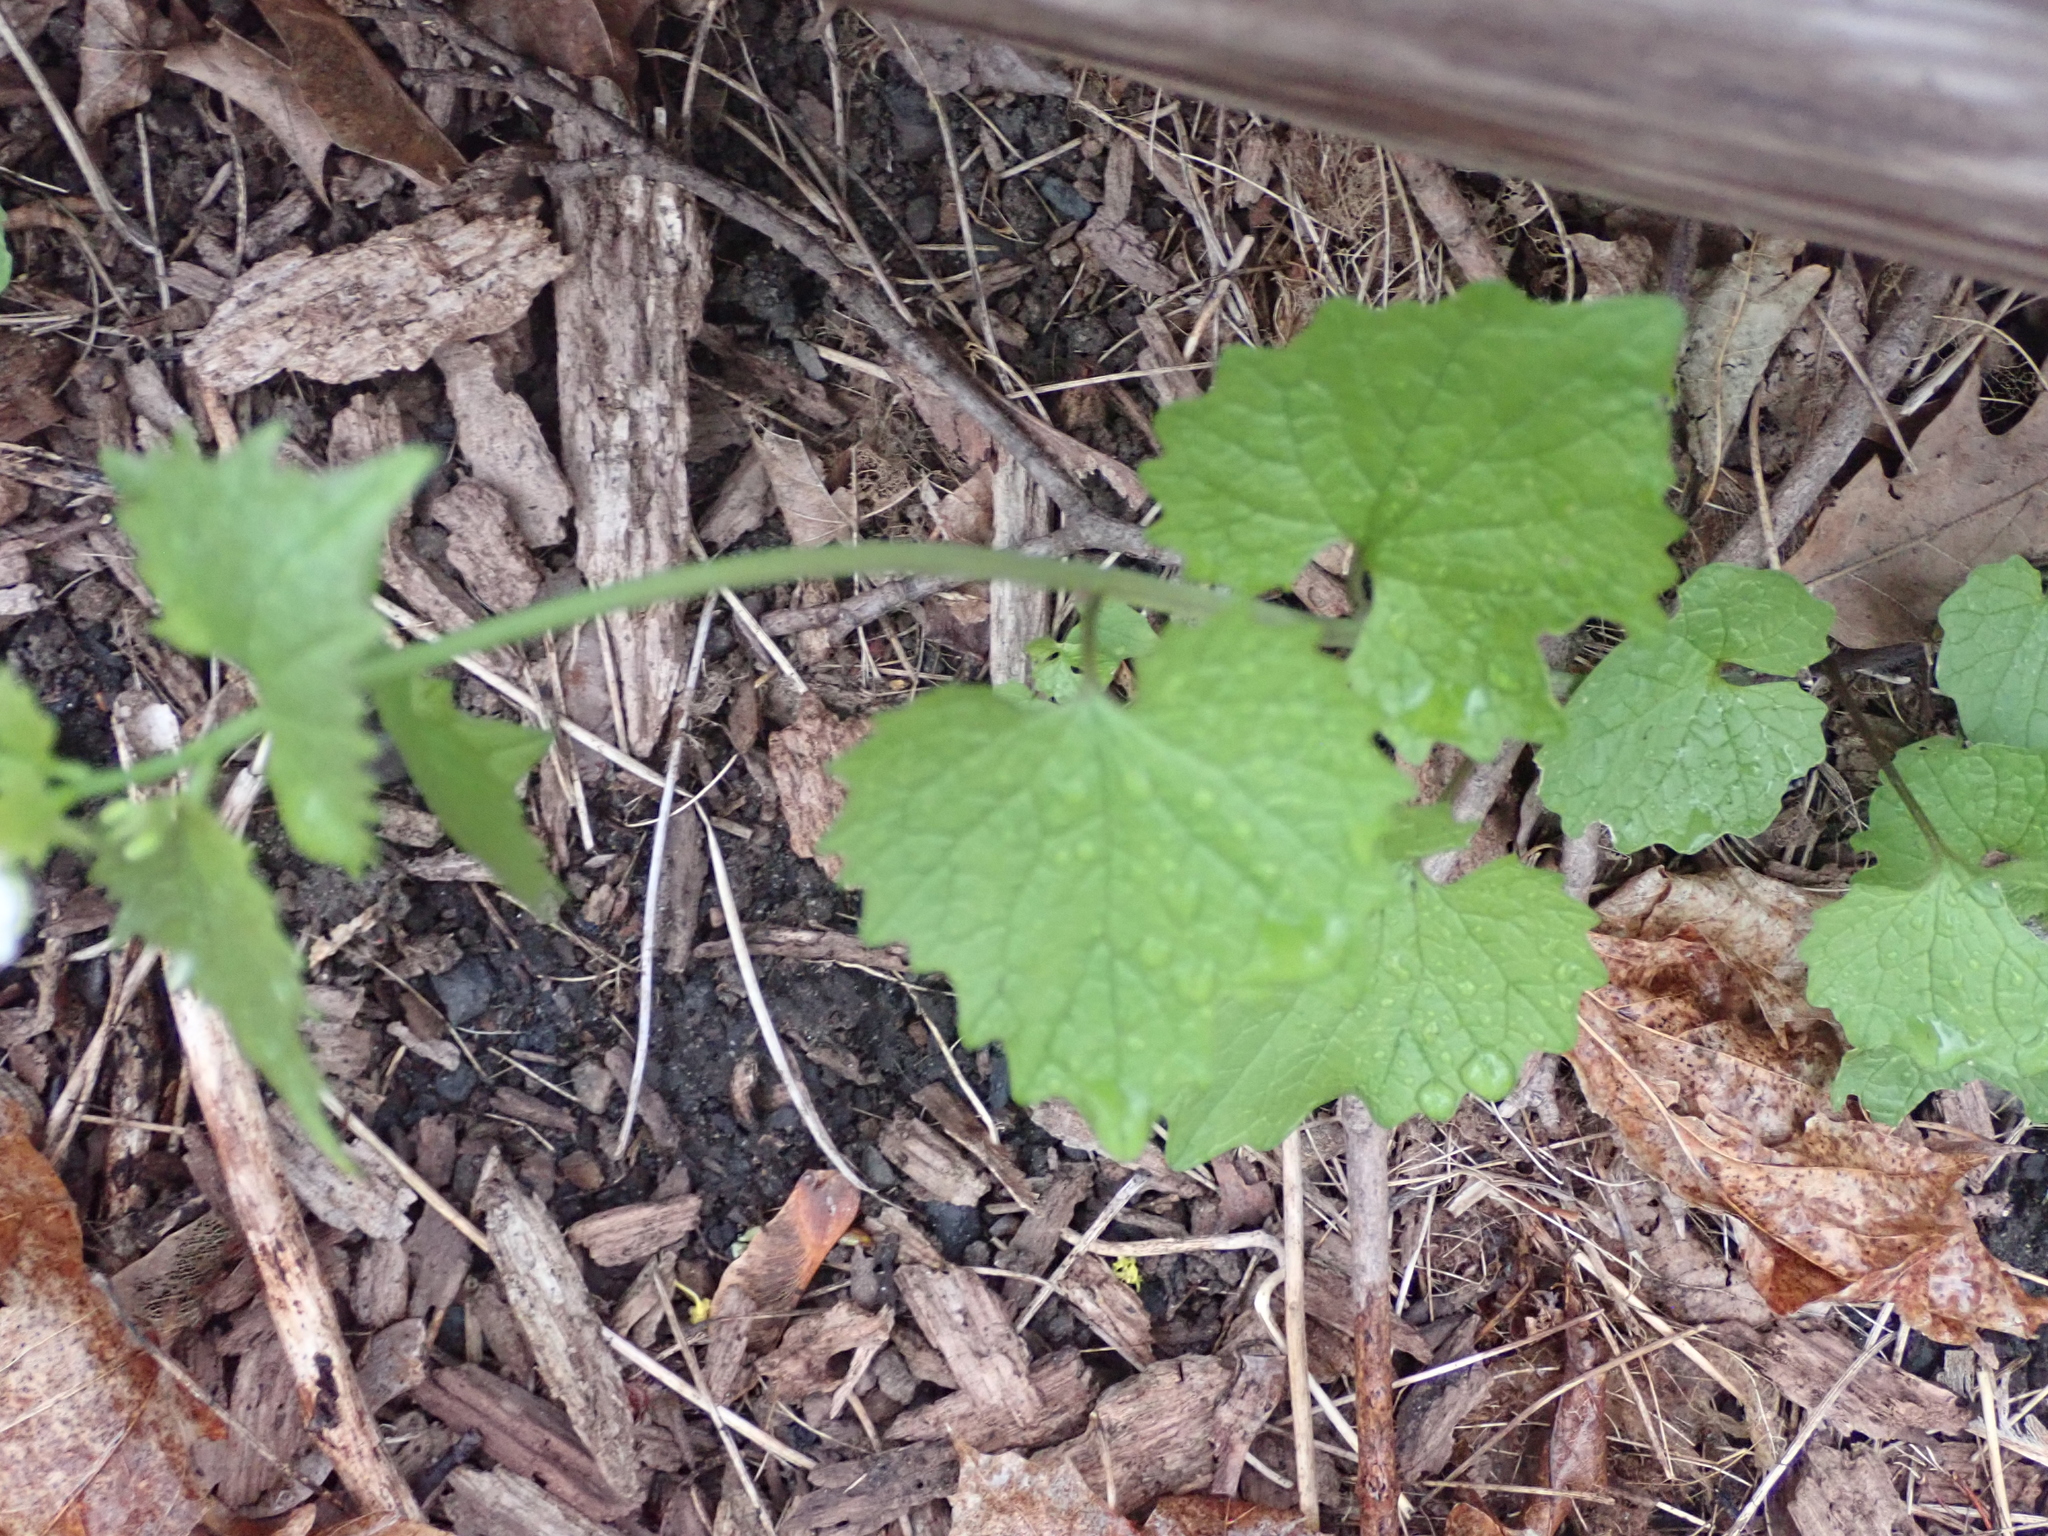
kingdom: Plantae
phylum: Tracheophyta
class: Magnoliopsida
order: Brassicales
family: Brassicaceae
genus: Alliaria
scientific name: Alliaria petiolata
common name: Garlic mustard
